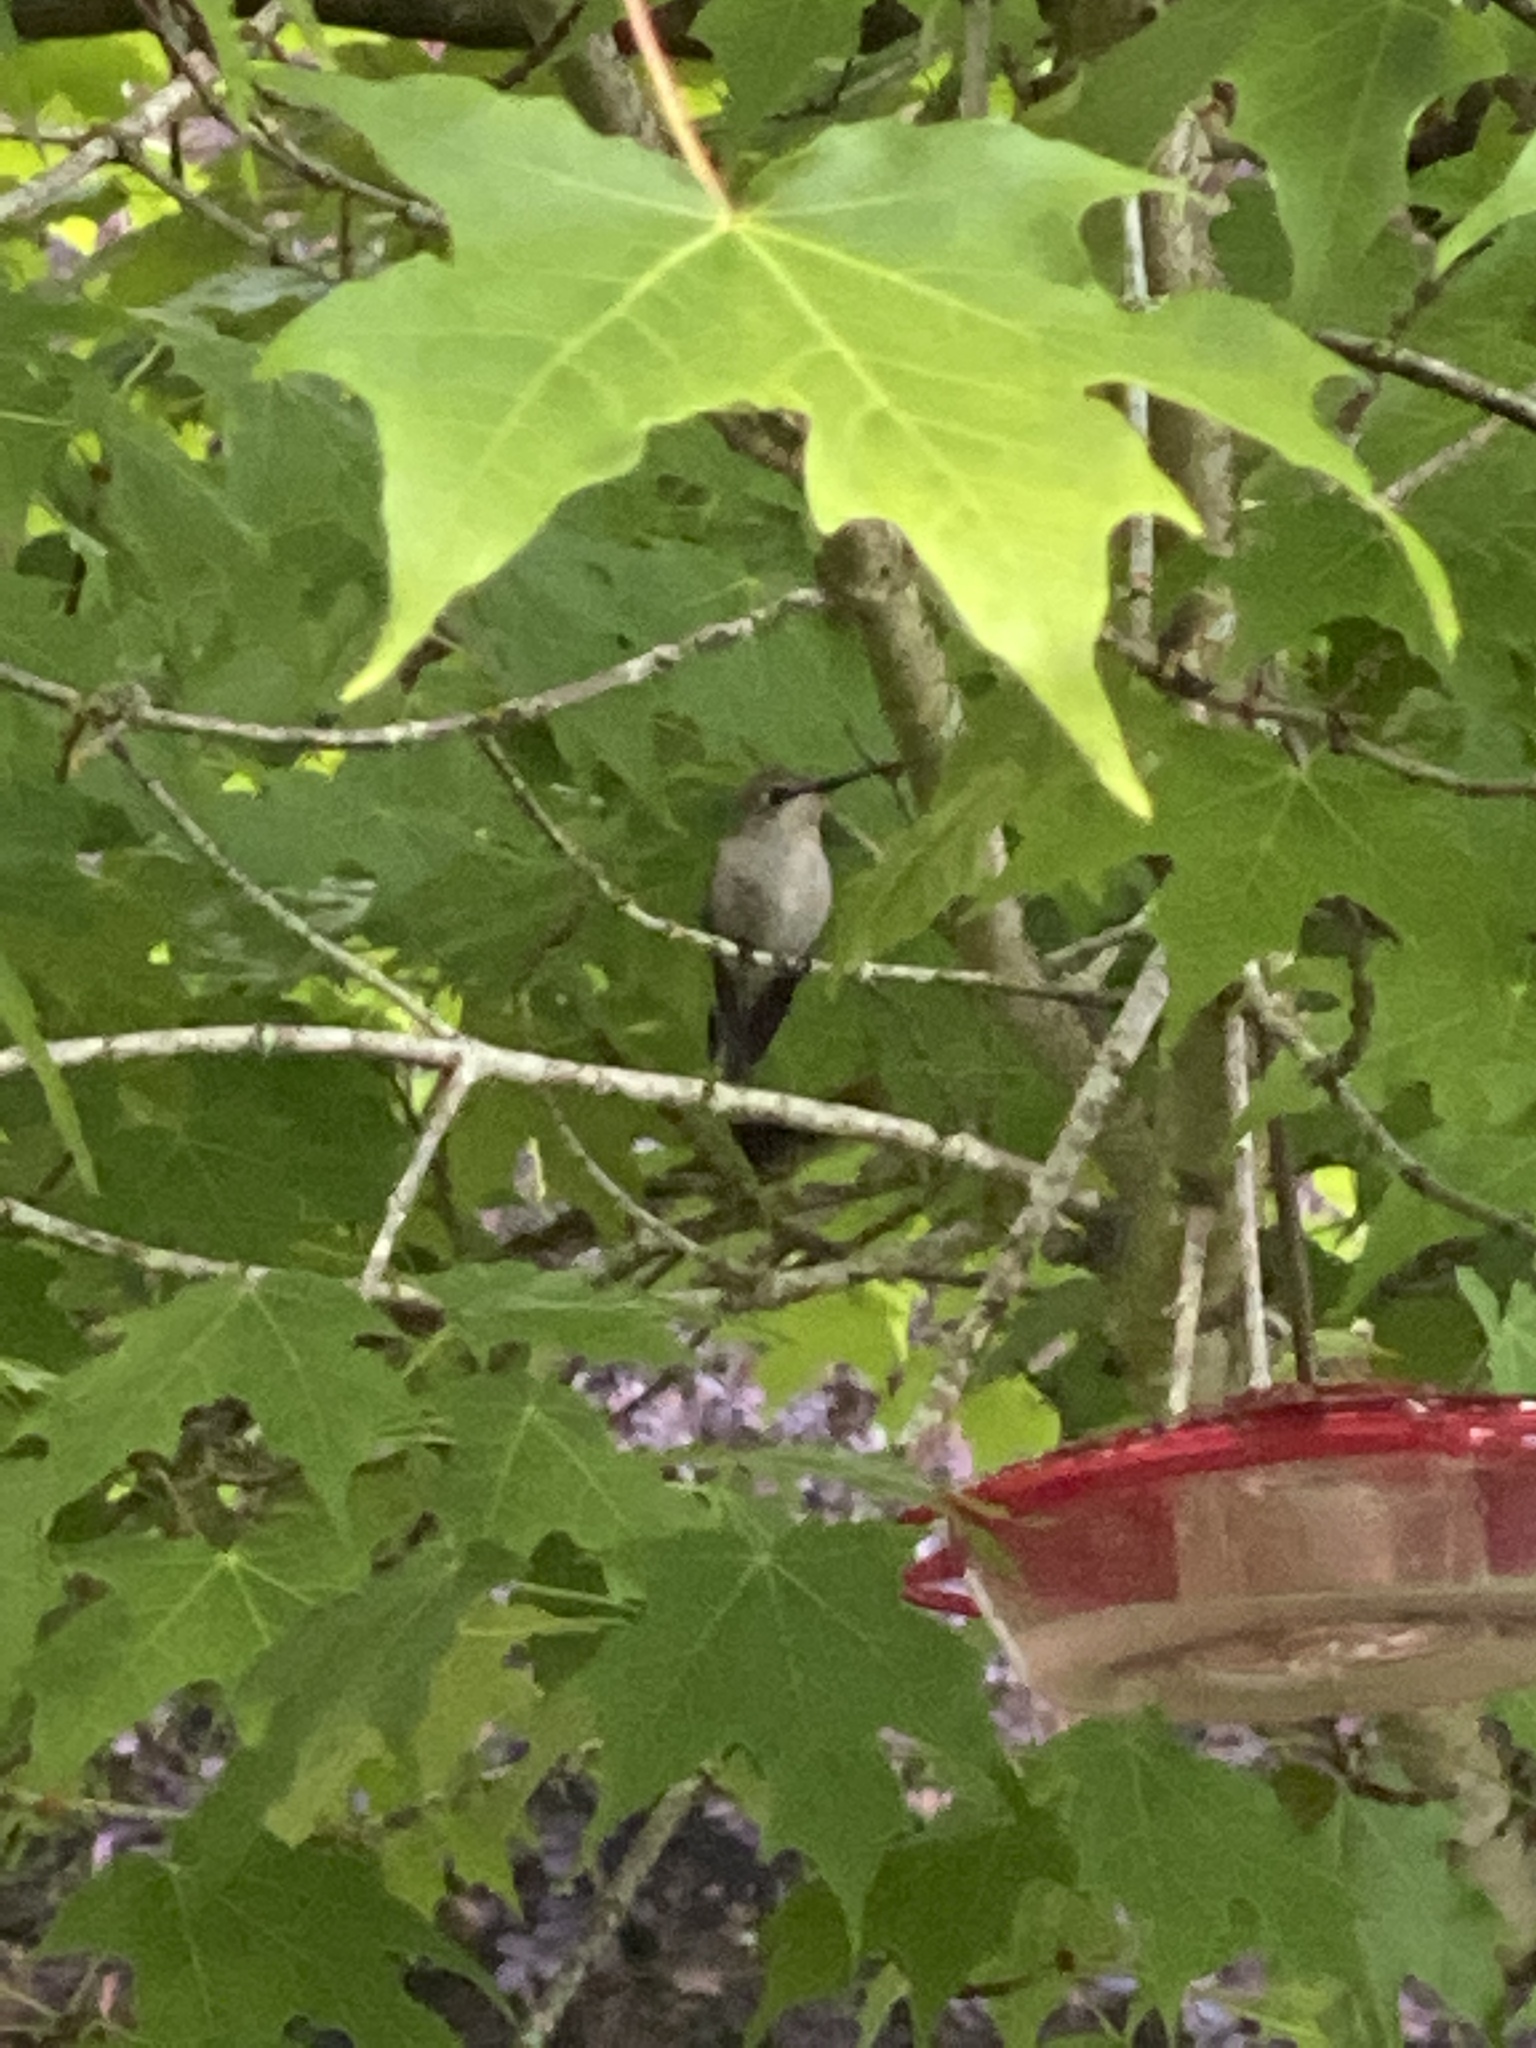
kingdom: Animalia
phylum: Chordata
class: Aves
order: Apodiformes
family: Trochilidae
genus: Calypte
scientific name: Calypte anna
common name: Anna's hummingbird
